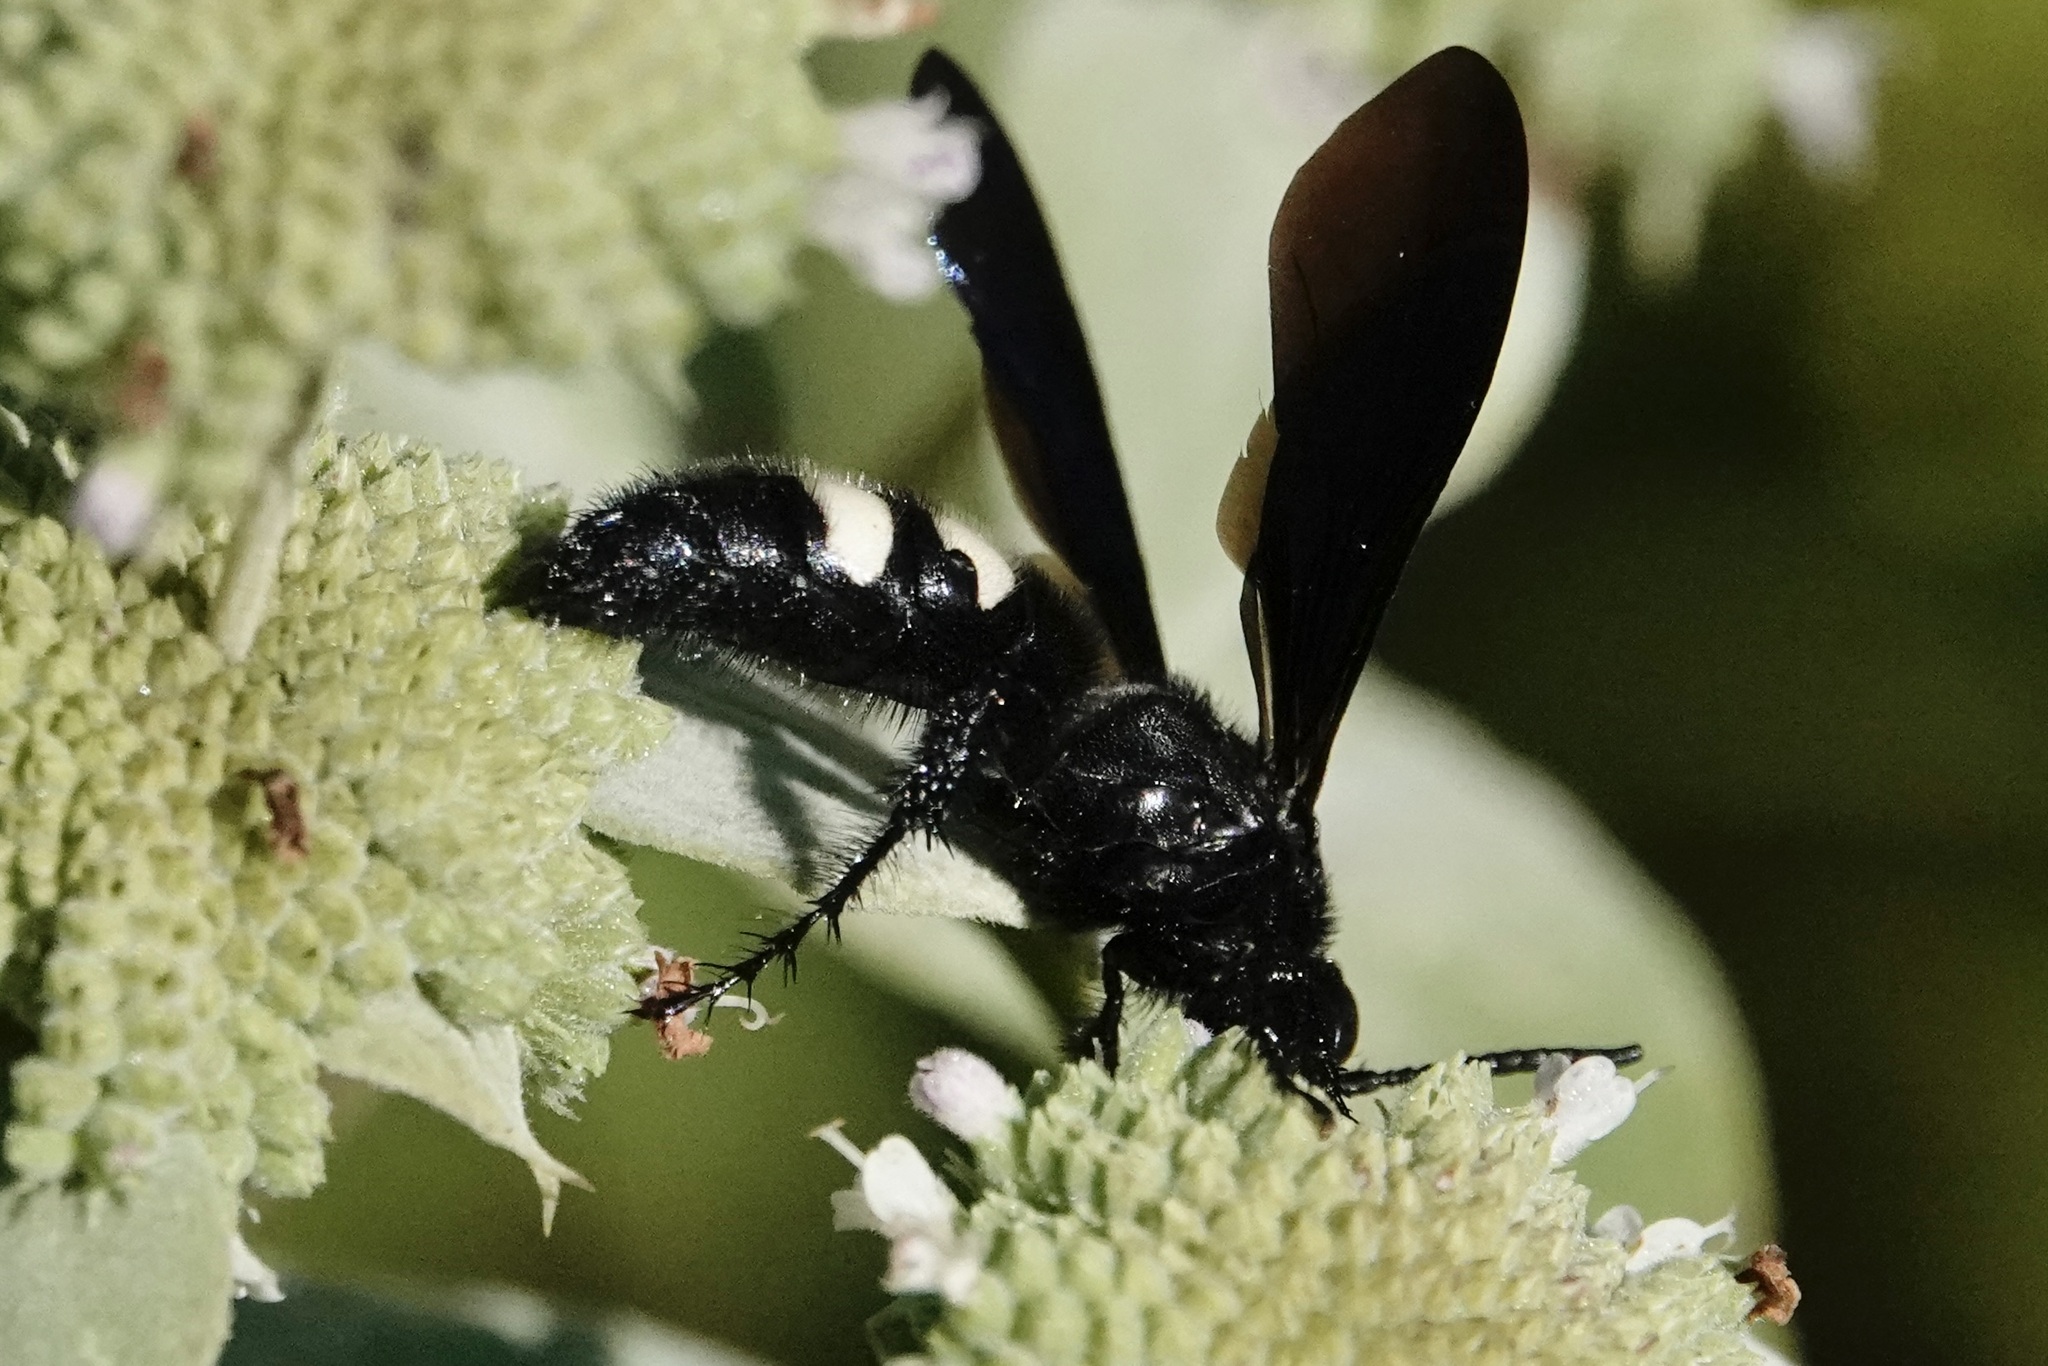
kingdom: Animalia
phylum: Arthropoda
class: Insecta
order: Hymenoptera
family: Scoliidae
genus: Scolia
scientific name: Scolia bicincta
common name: Double-banded scoliid wasp
